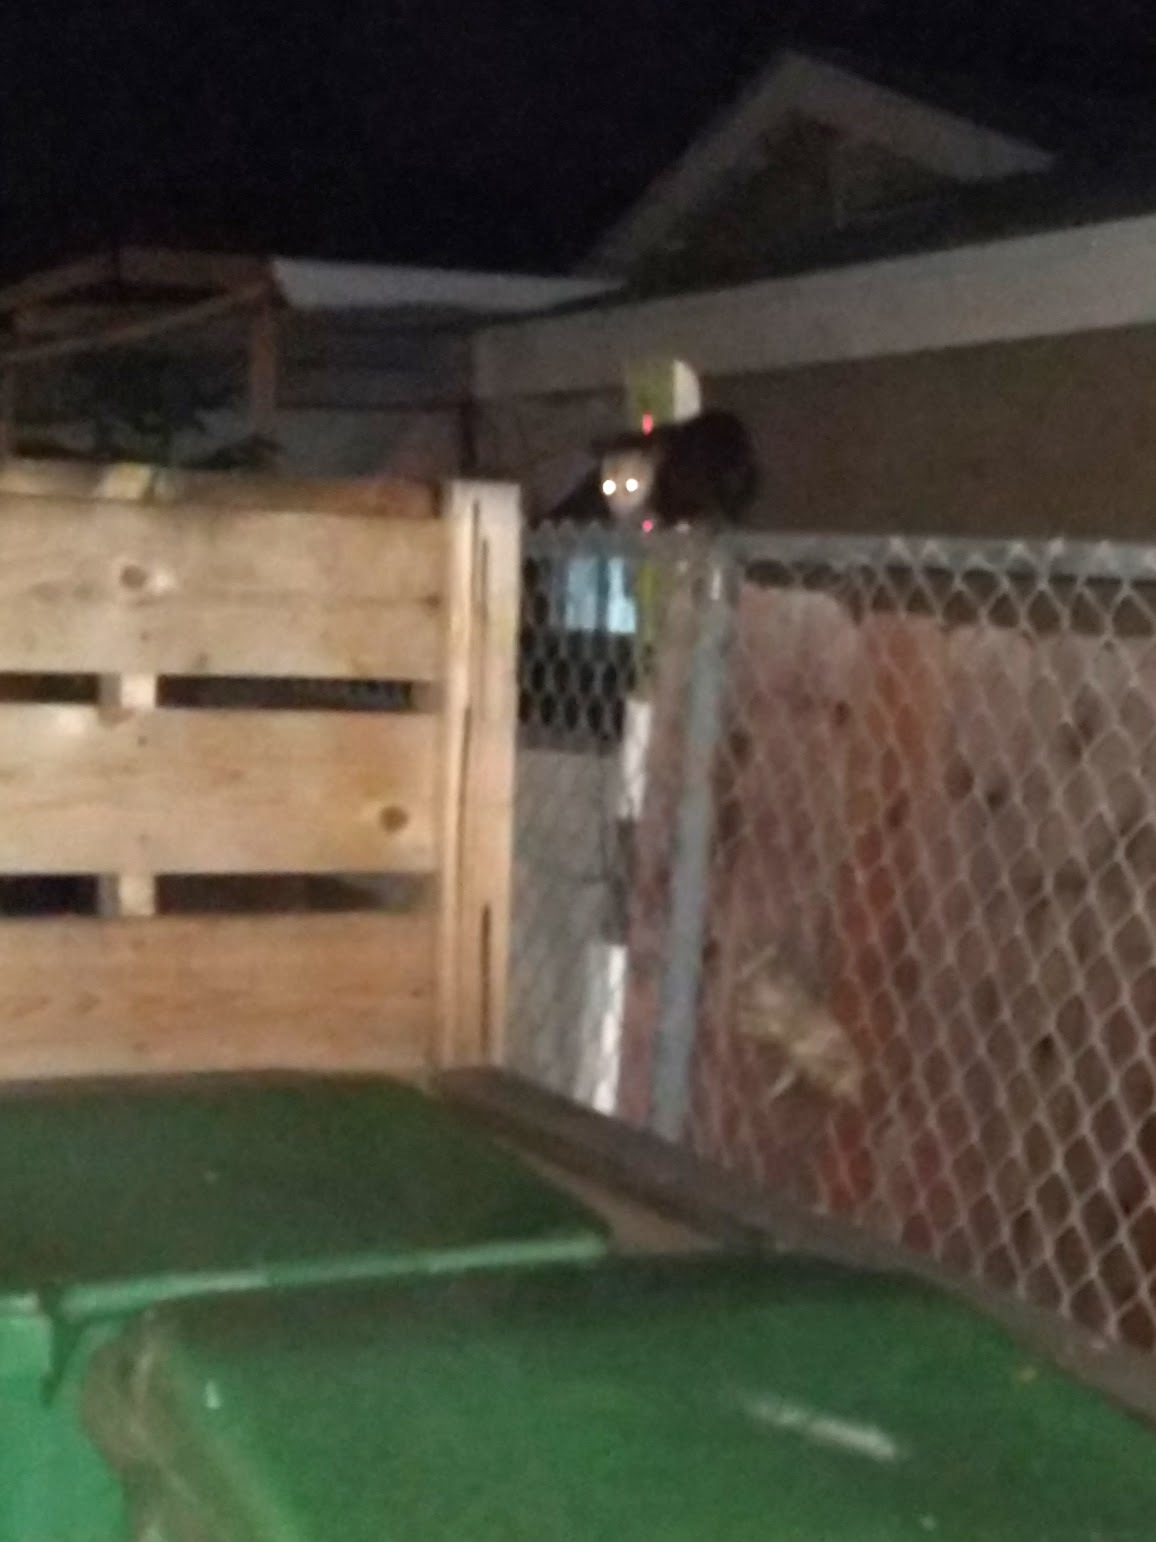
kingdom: Animalia
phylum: Chordata
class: Mammalia
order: Didelphimorphia
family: Didelphidae
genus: Didelphis
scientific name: Didelphis virginiana
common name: Virginia opossum
